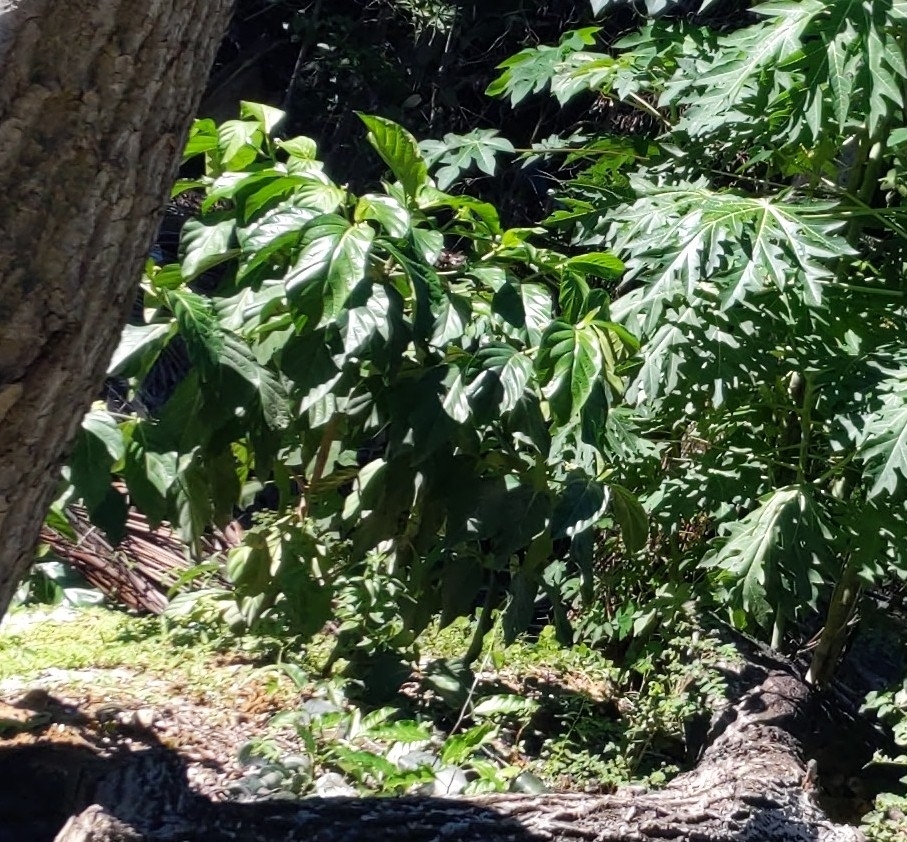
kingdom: Plantae
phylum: Tracheophyta
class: Magnoliopsida
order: Gentianales
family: Rubiaceae
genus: Morinda
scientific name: Morinda citrifolia
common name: Indian-mulberry
